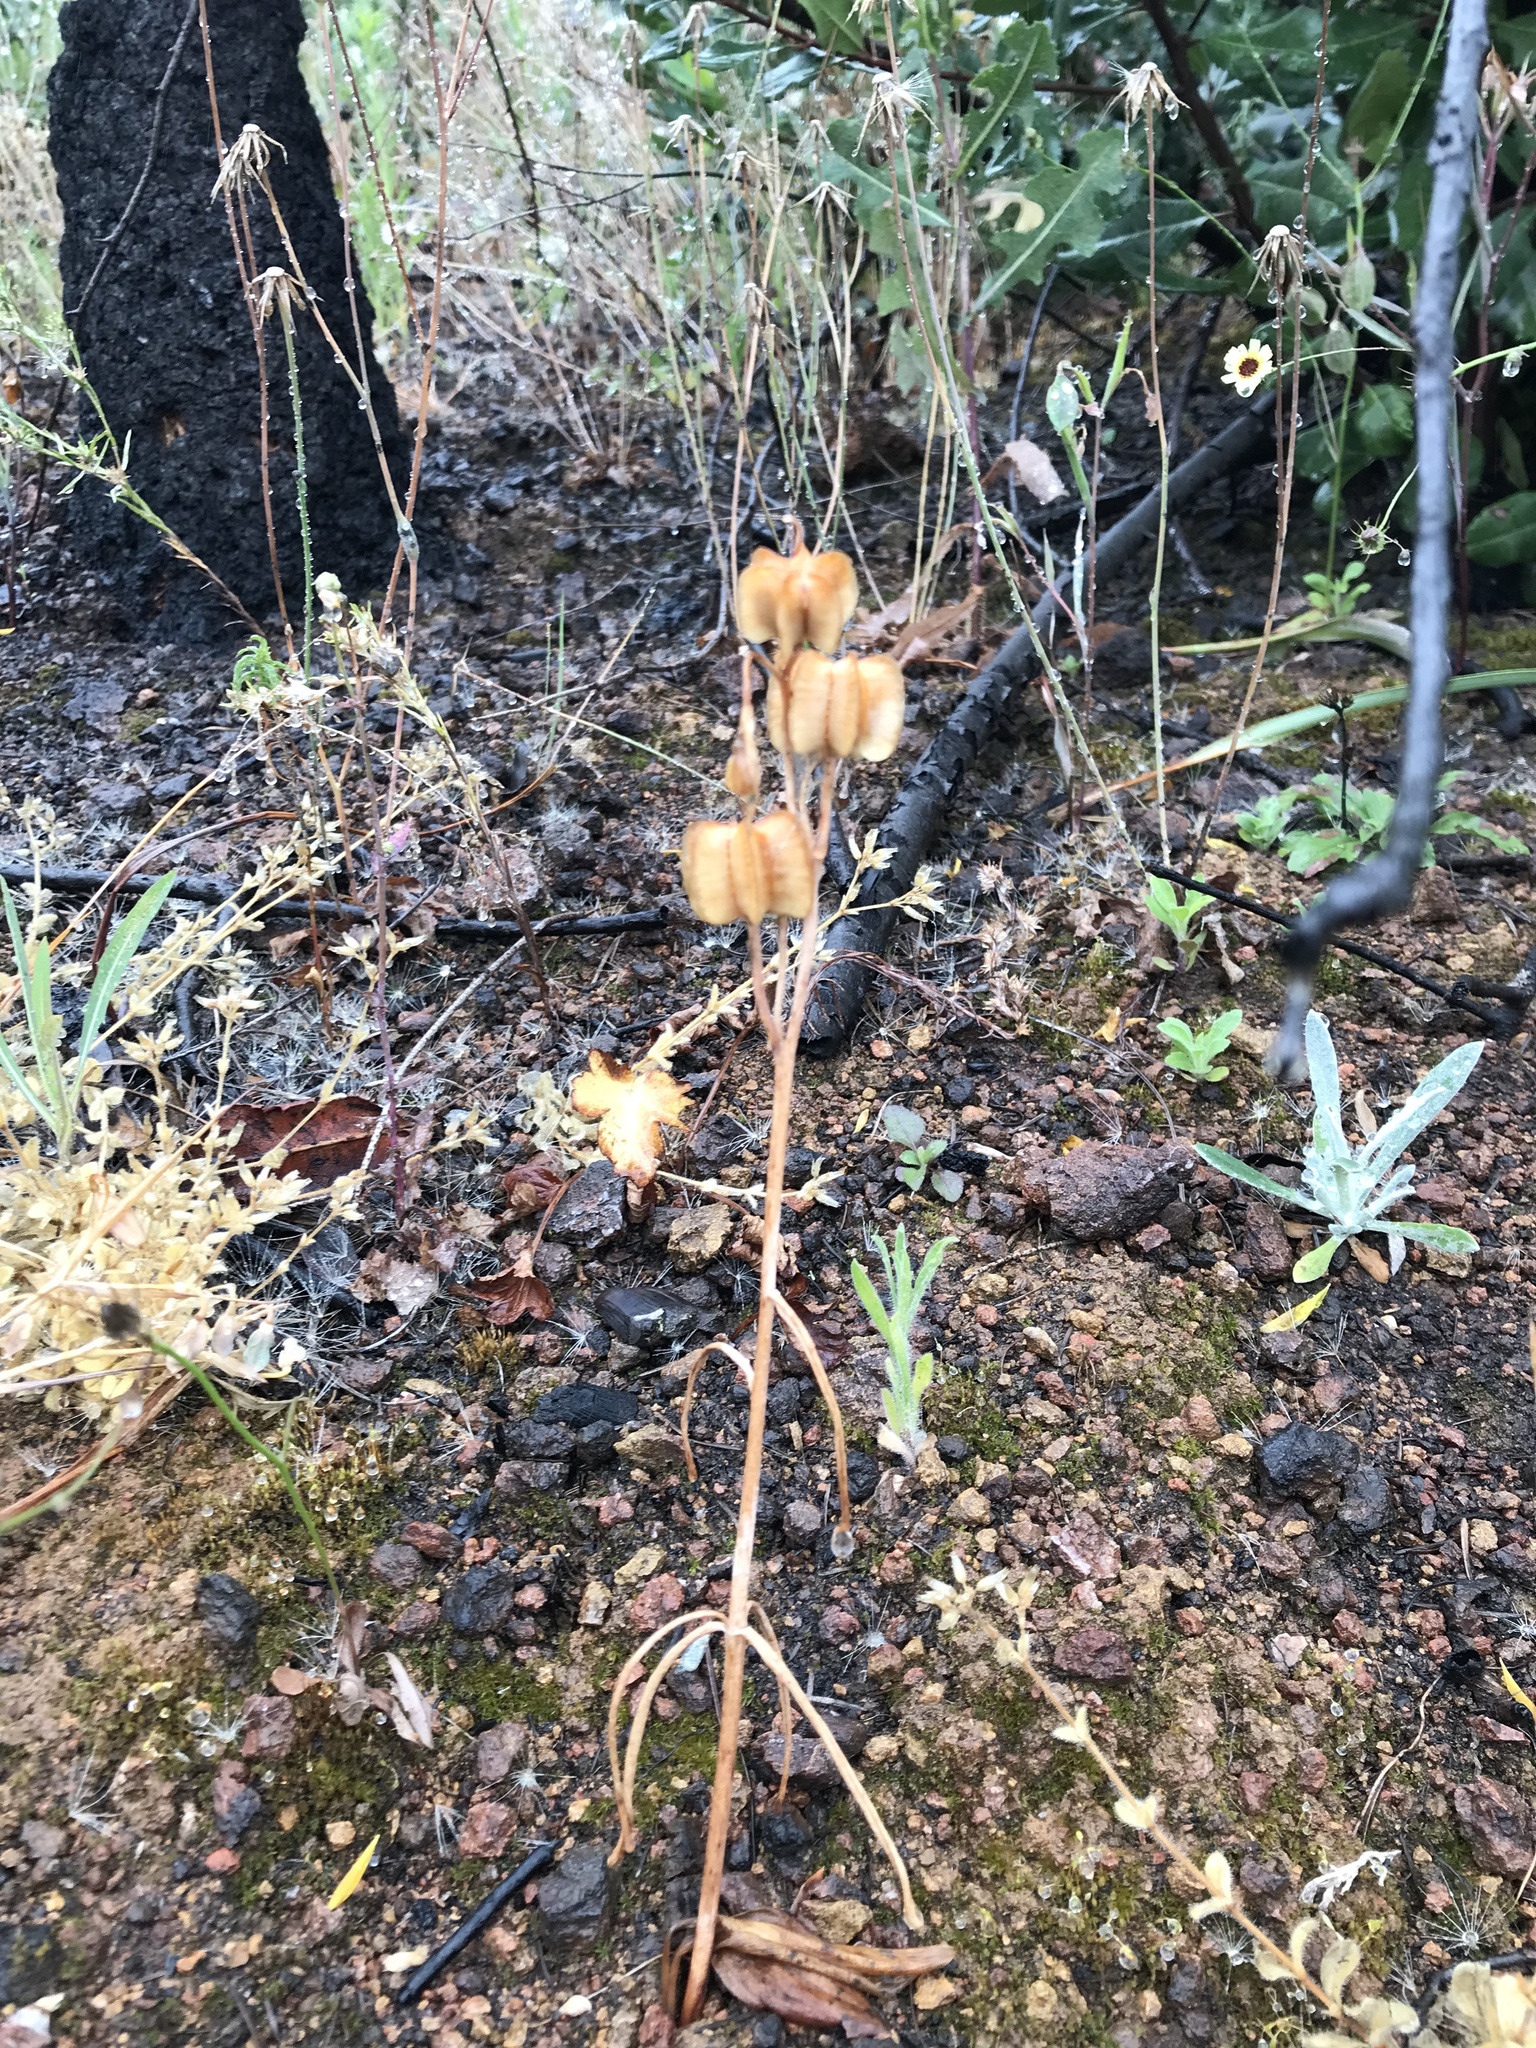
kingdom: Plantae
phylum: Tracheophyta
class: Liliopsida
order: Liliales
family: Liliaceae
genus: Fritillaria
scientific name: Fritillaria affinis
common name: Ojai fritillary
